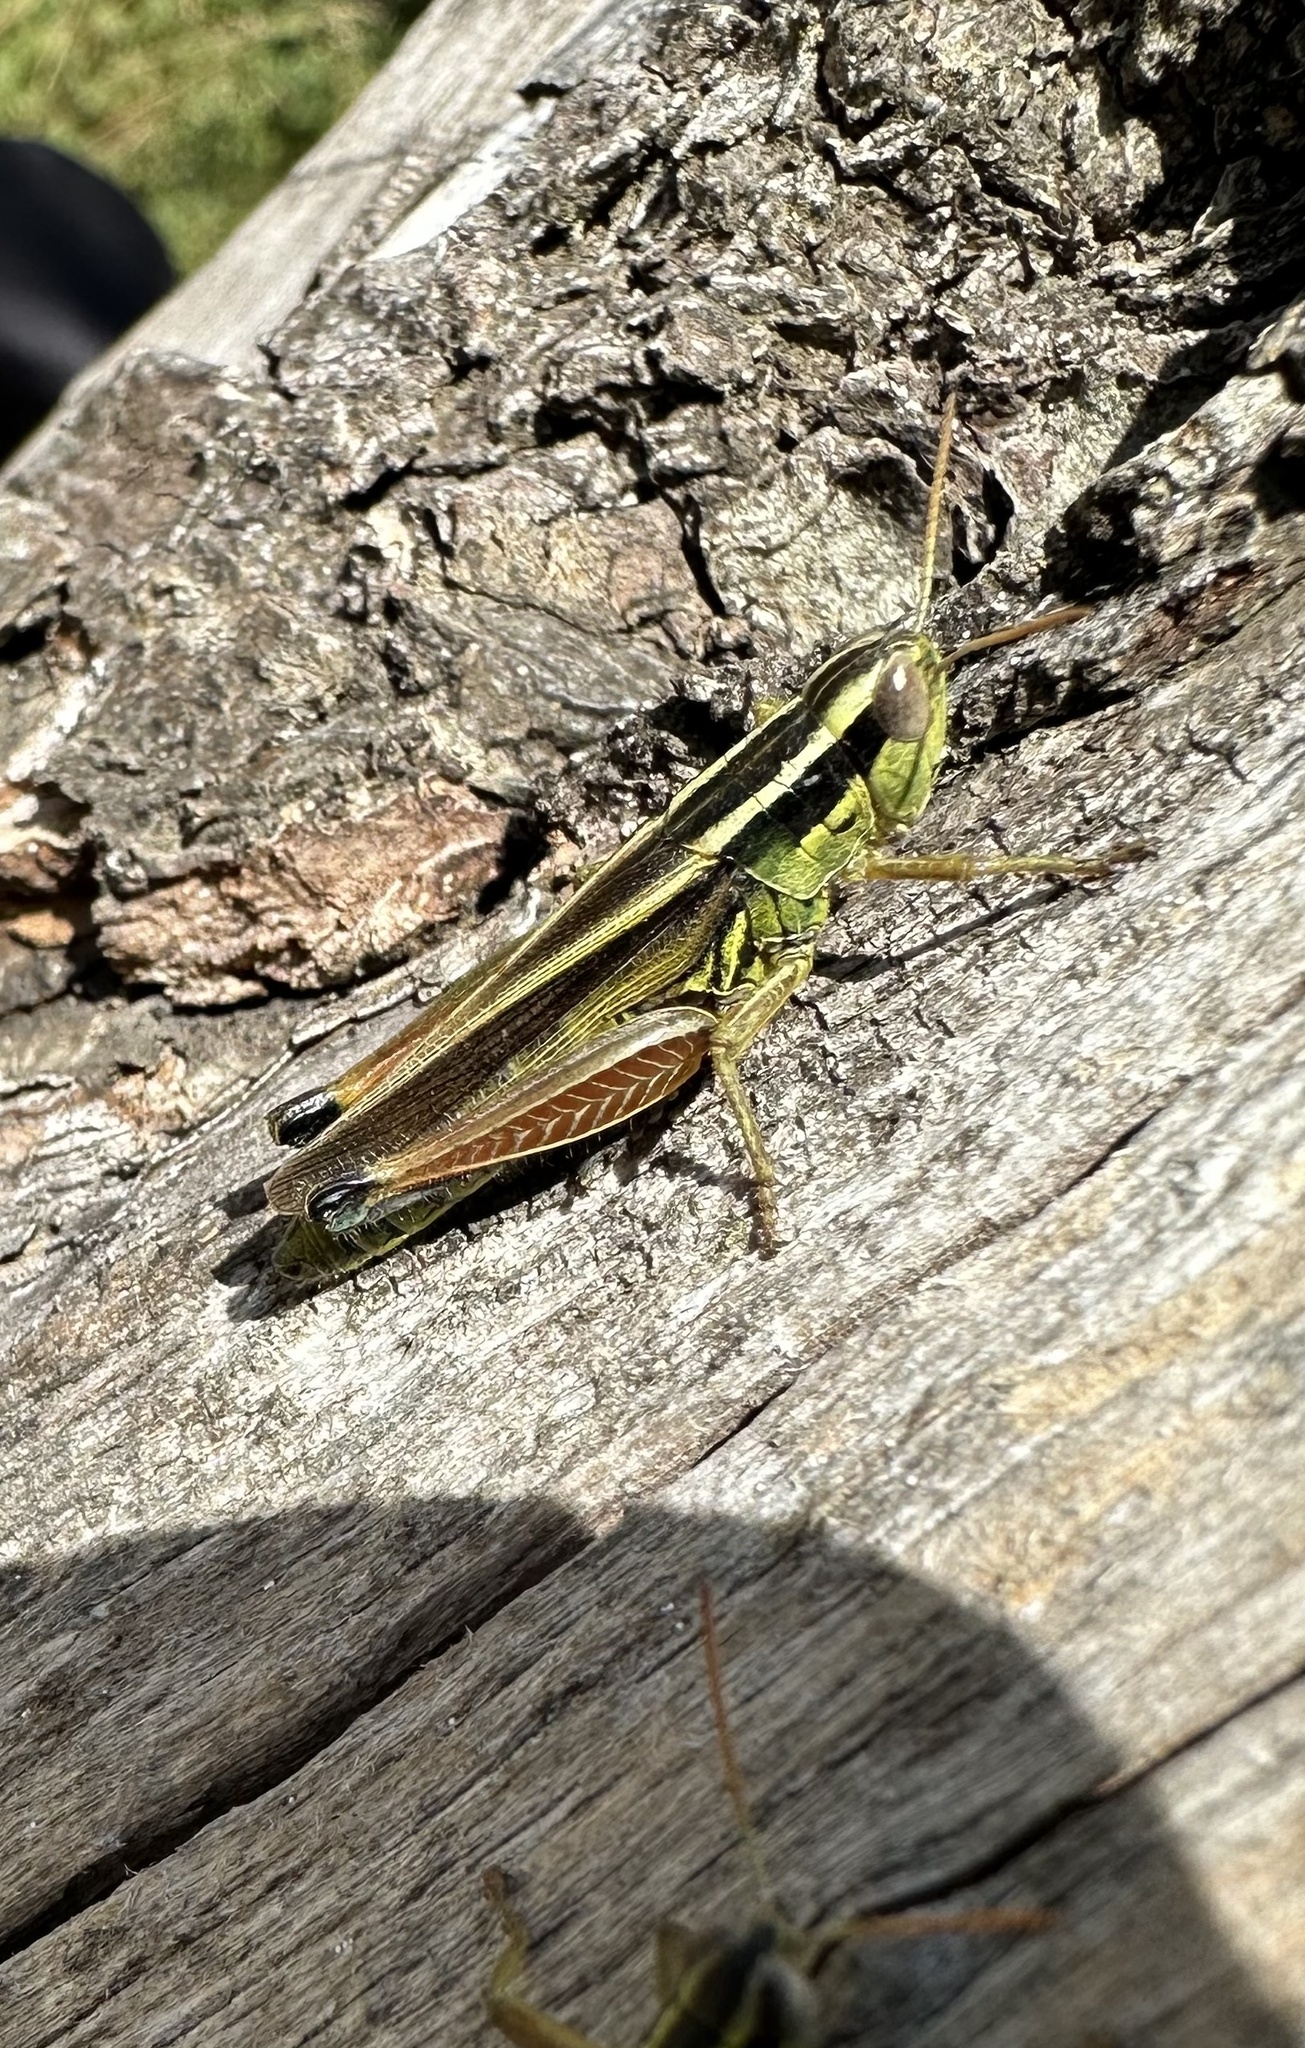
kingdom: Animalia
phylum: Arthropoda
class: Insecta
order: Orthoptera
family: Acrididae
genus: Dichroplus
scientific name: Dichroplus vittiger
